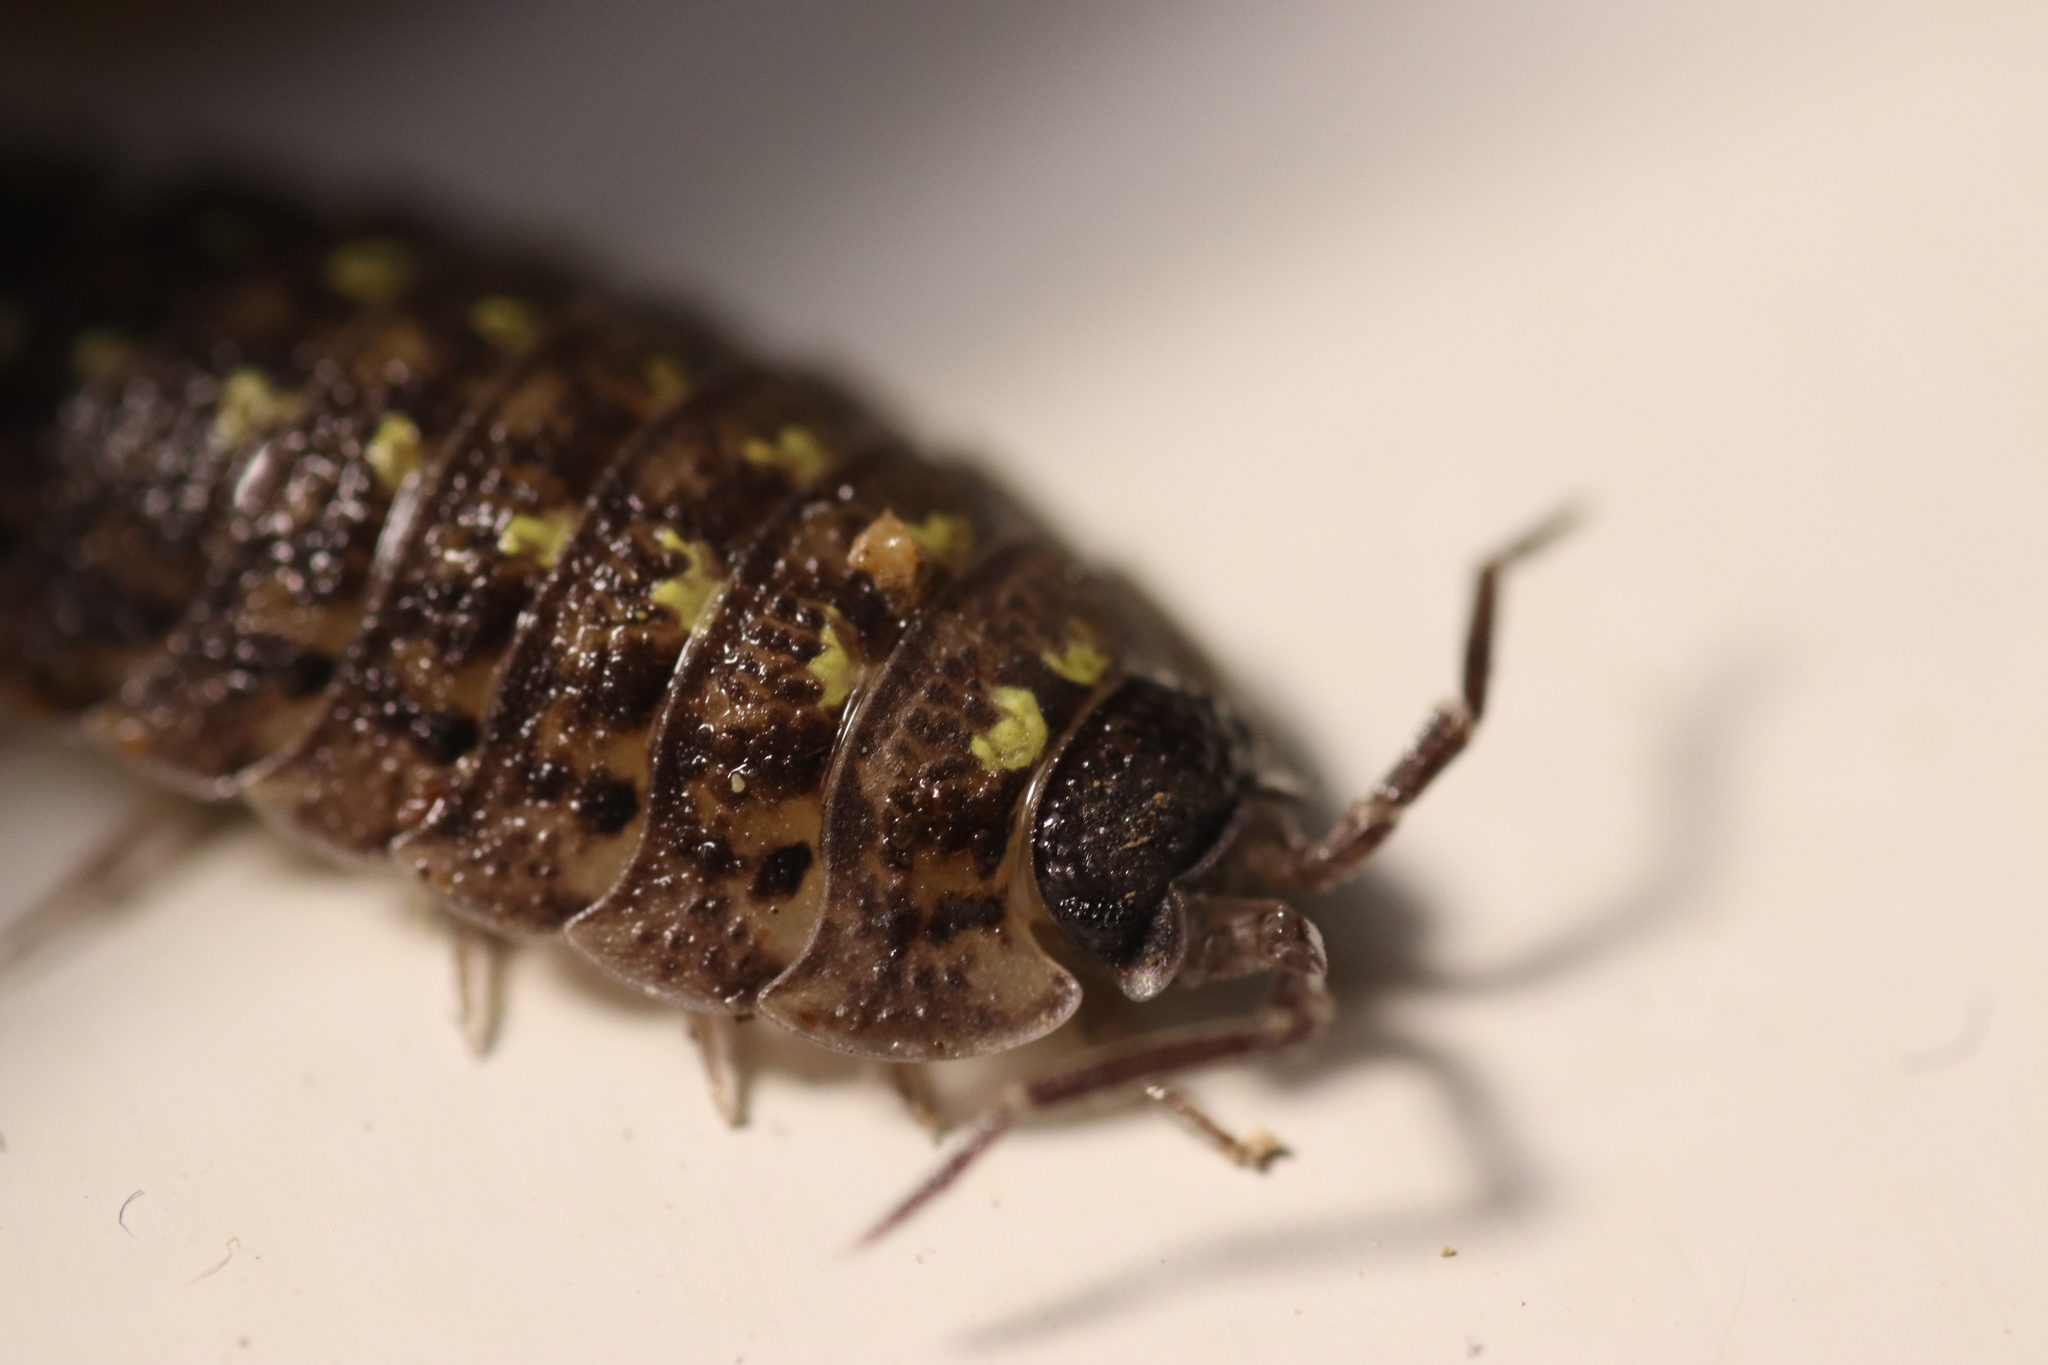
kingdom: Animalia
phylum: Arthropoda
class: Malacostraca
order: Isopoda
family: Porcellionidae
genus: Porcellio
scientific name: Porcellio spinicornis
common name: Painted woodlouse
